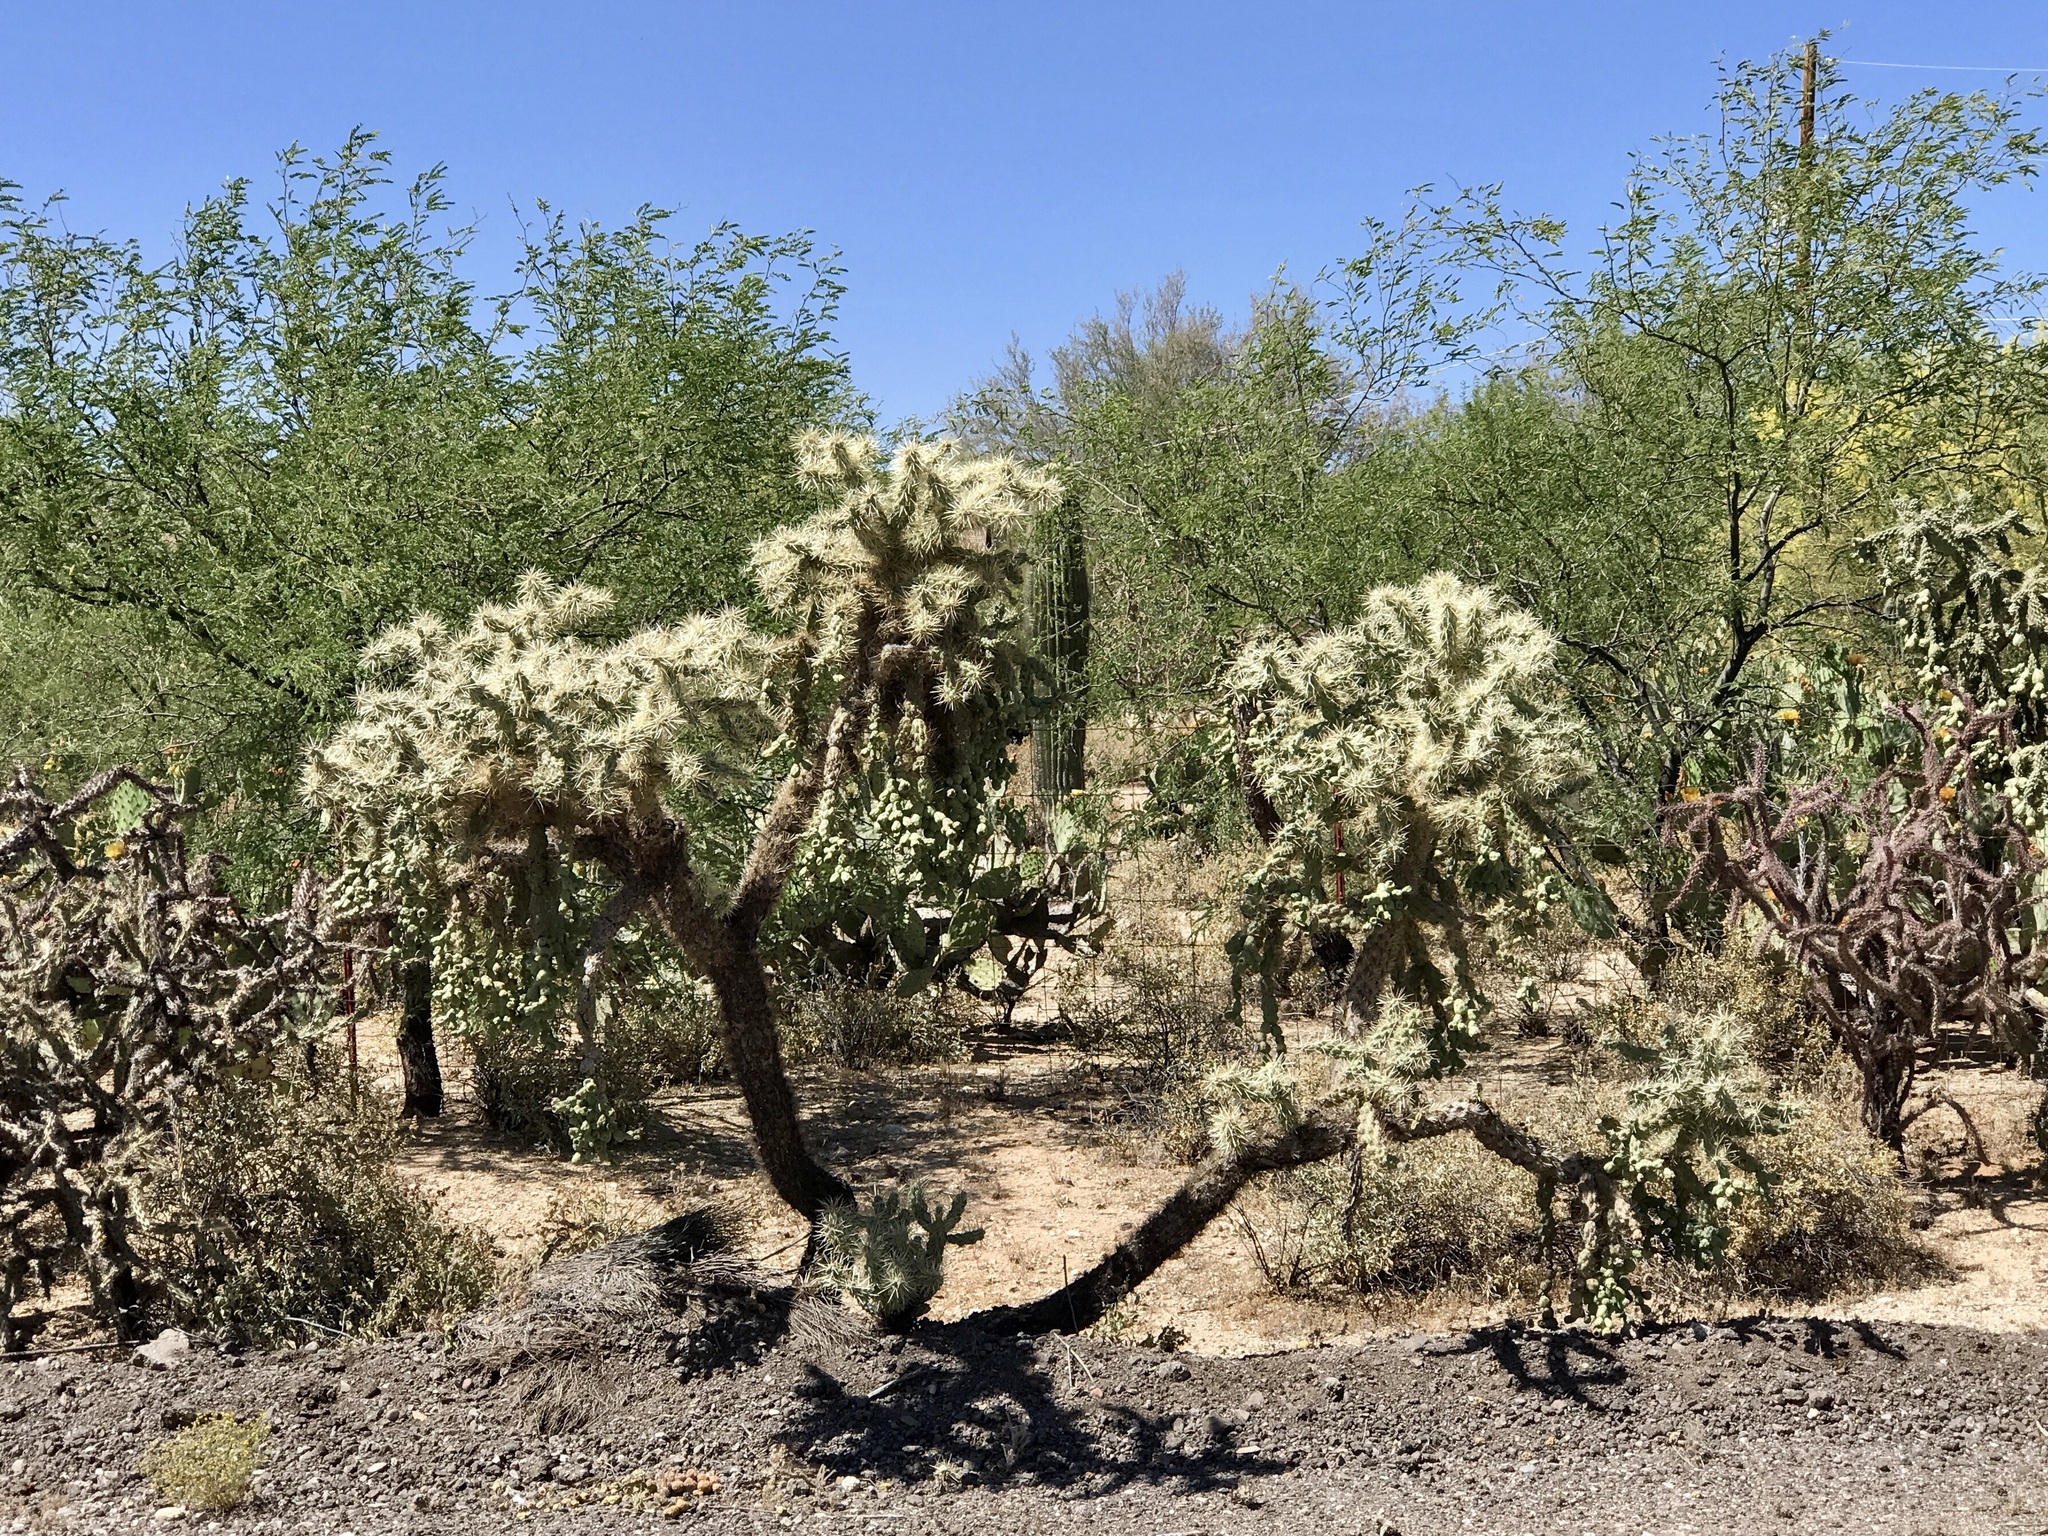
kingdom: Plantae
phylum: Tracheophyta
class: Magnoliopsida
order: Caryophyllales
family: Cactaceae
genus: Cylindropuntia
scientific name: Cylindropuntia fulgida
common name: Jumping cholla
